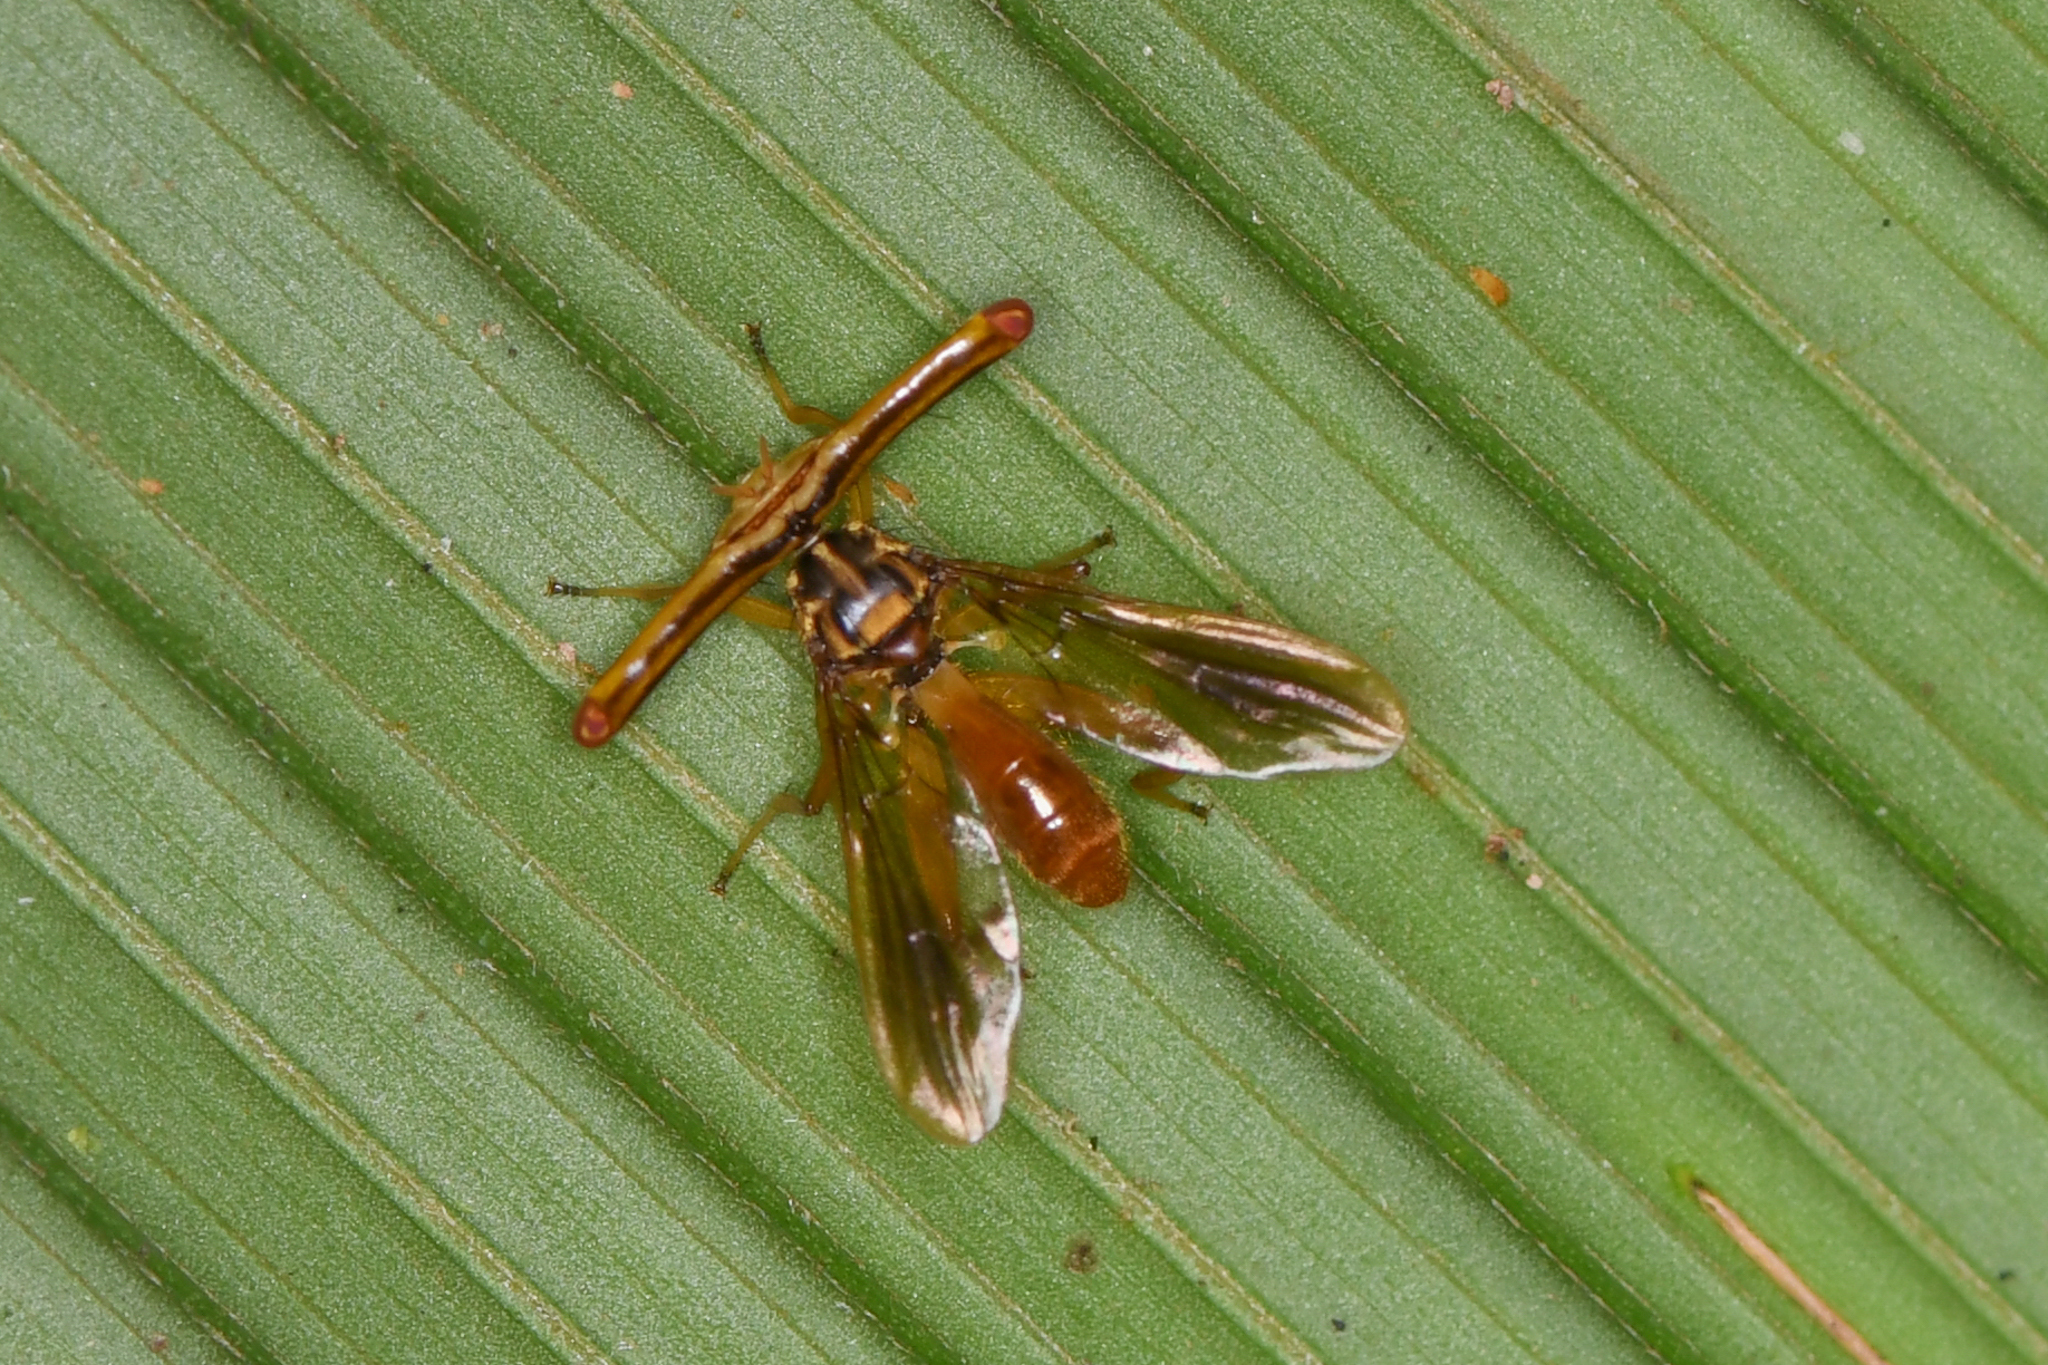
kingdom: Animalia
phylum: Arthropoda
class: Insecta
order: Diptera
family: Richardiidae
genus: Richardia
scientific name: Richardia telescopica
